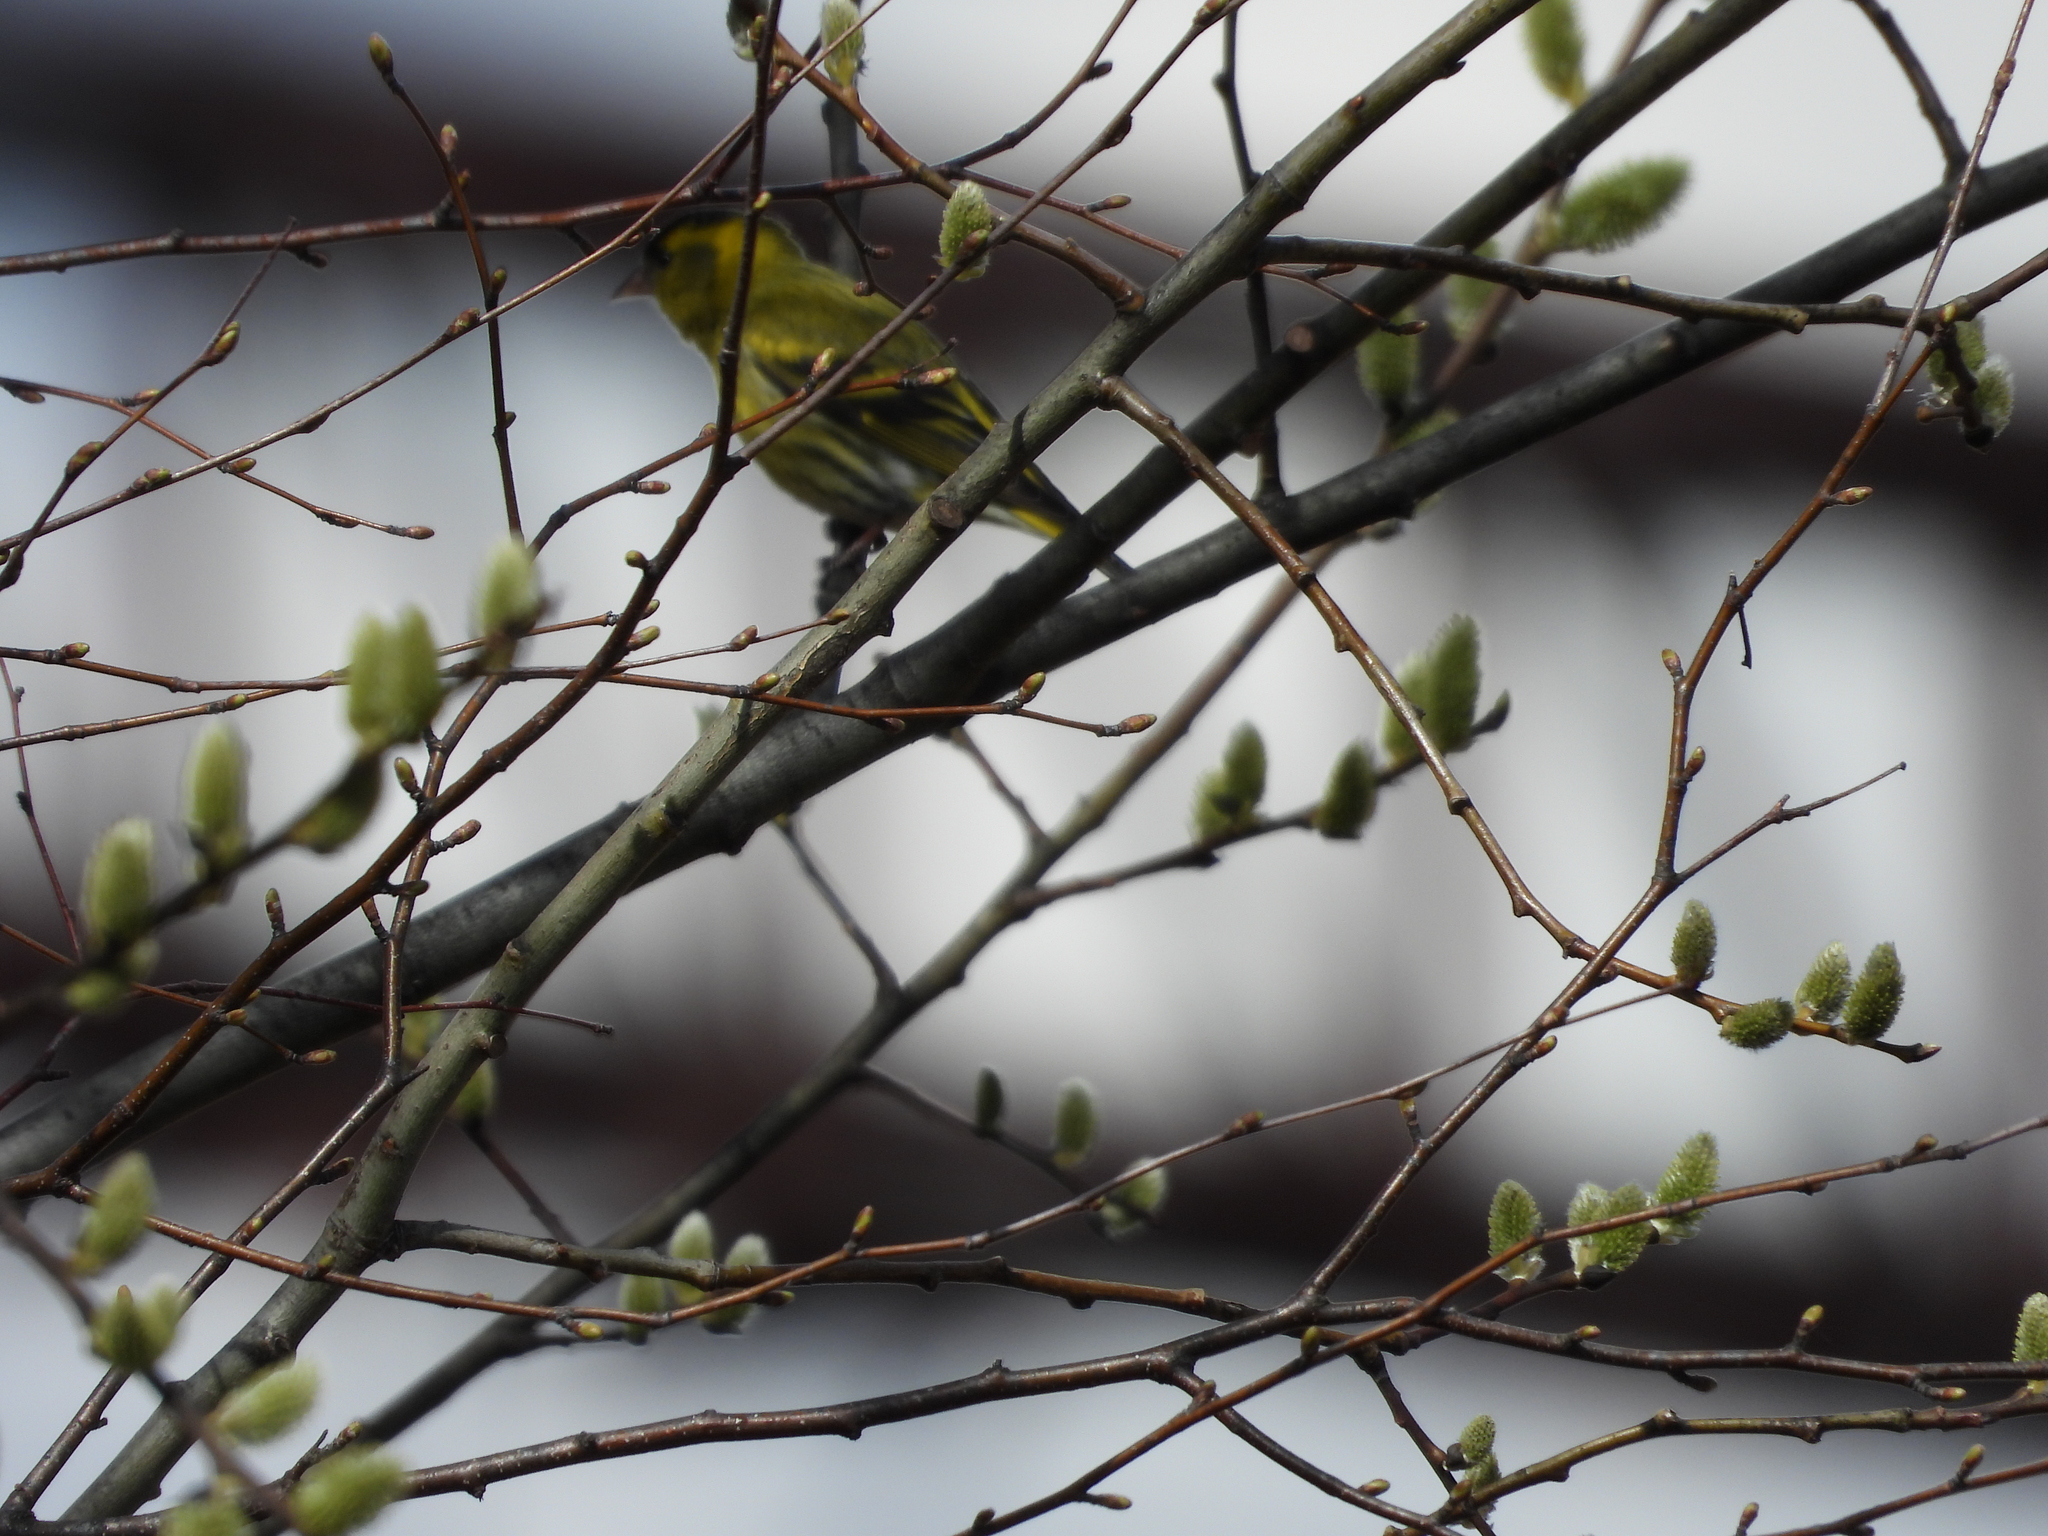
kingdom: Animalia
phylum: Chordata
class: Aves
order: Passeriformes
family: Fringillidae
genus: Spinus
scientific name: Spinus spinus
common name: Eurasian siskin
